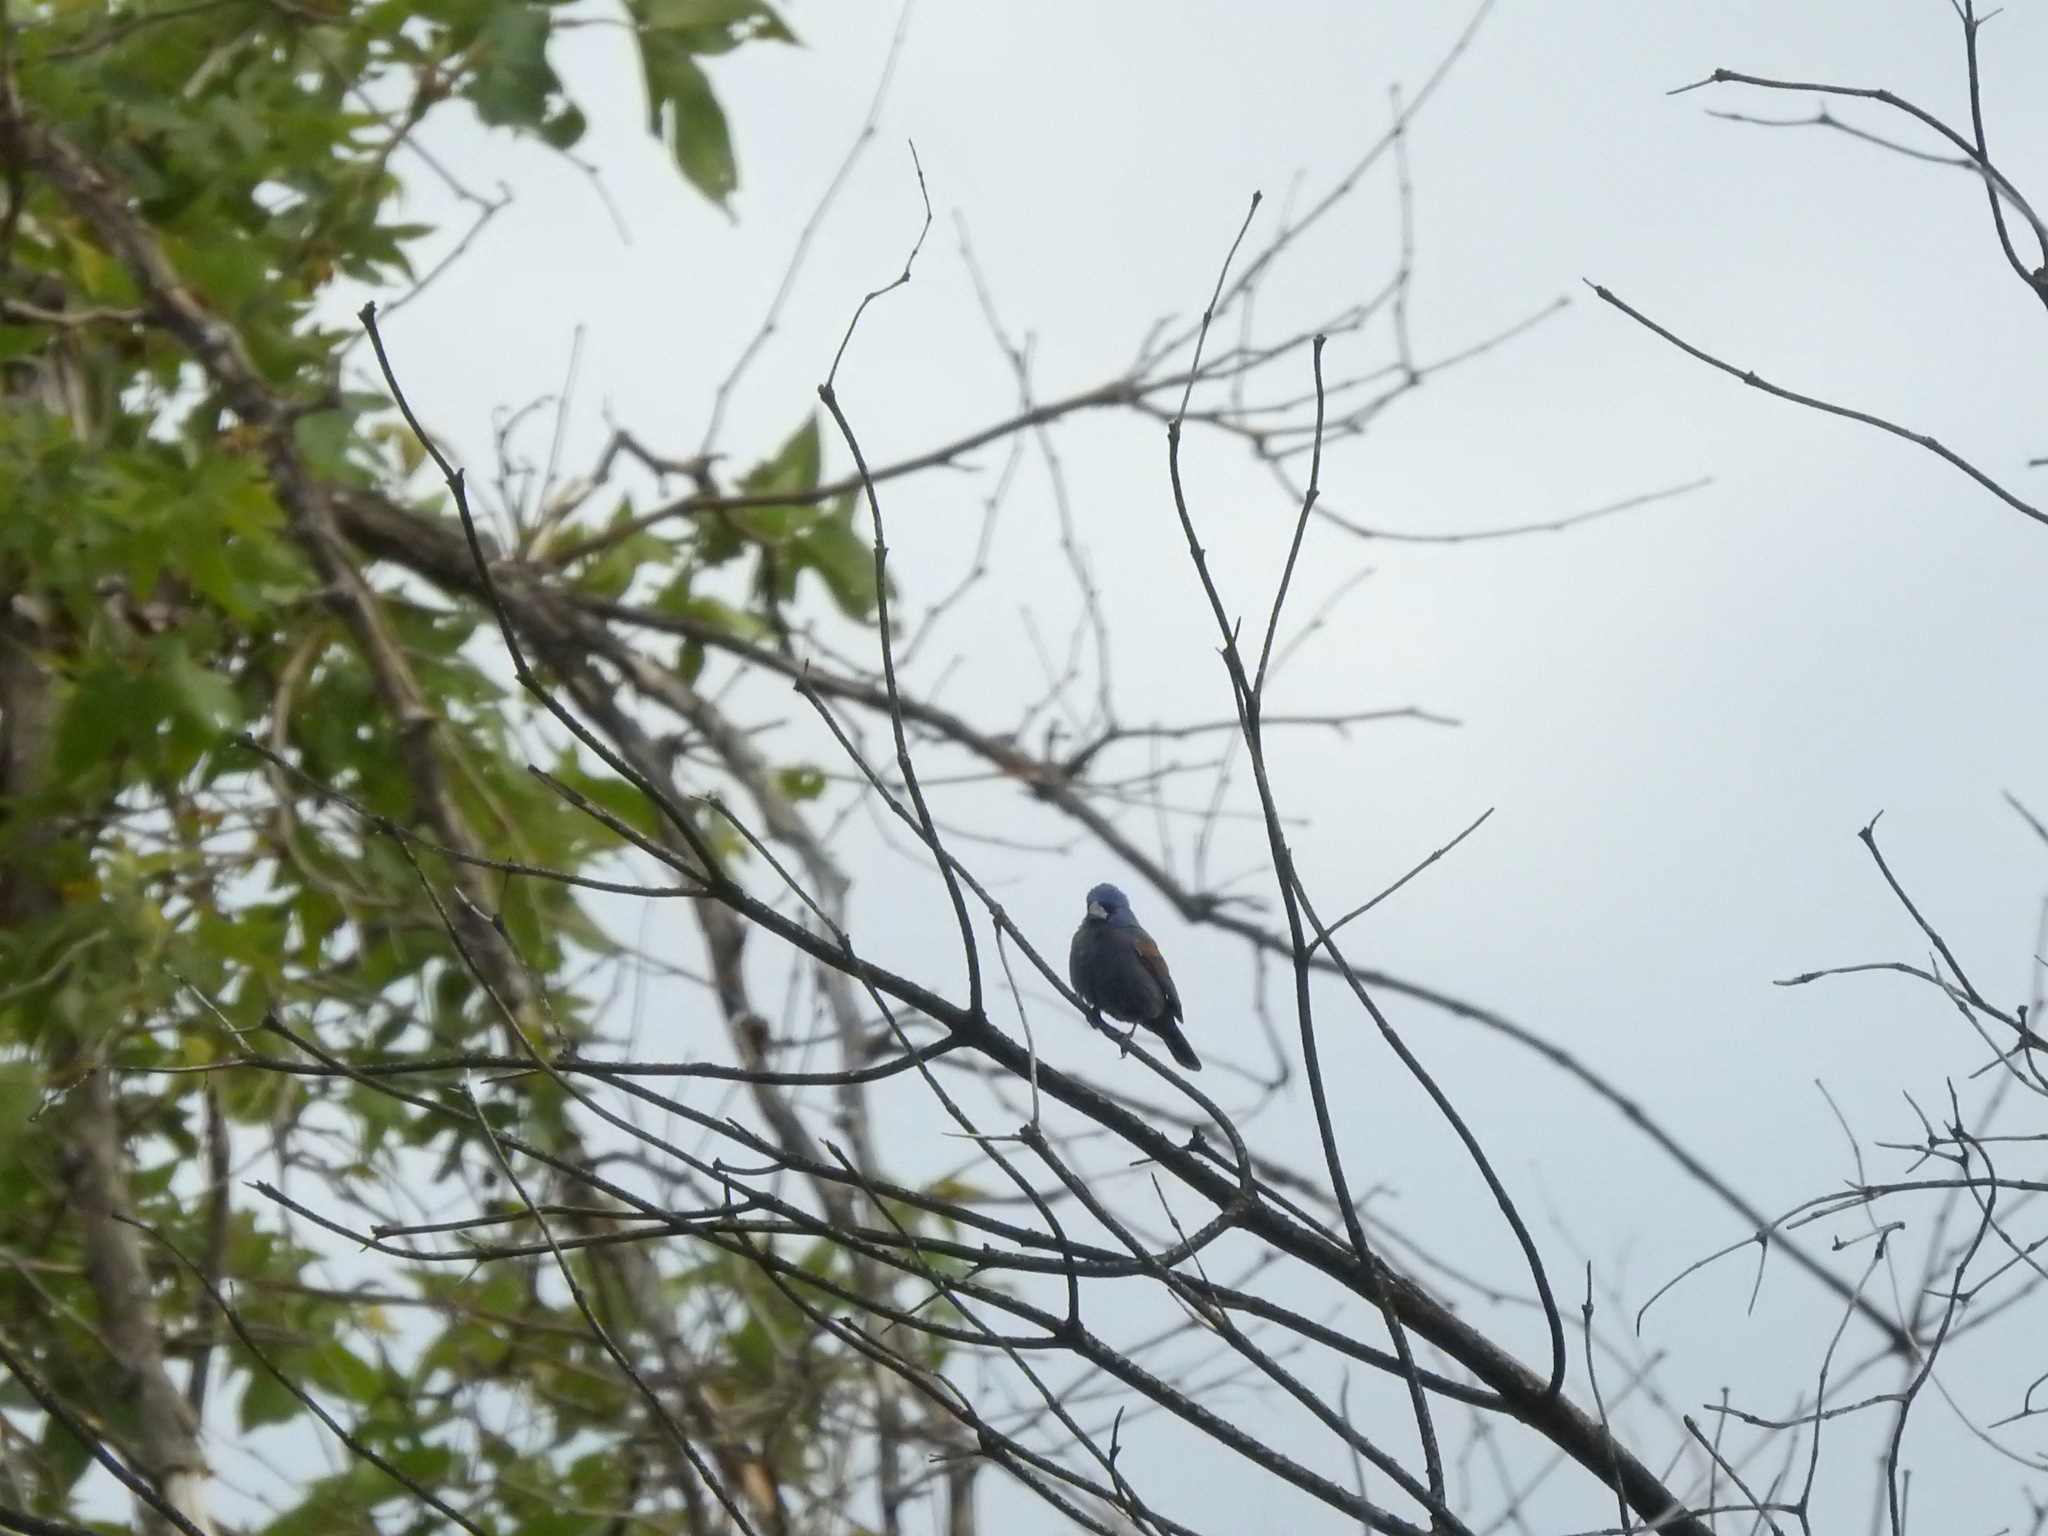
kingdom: Animalia
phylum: Chordata
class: Aves
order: Passeriformes
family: Cardinalidae
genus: Passerina
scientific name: Passerina caerulea
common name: Blue grosbeak
